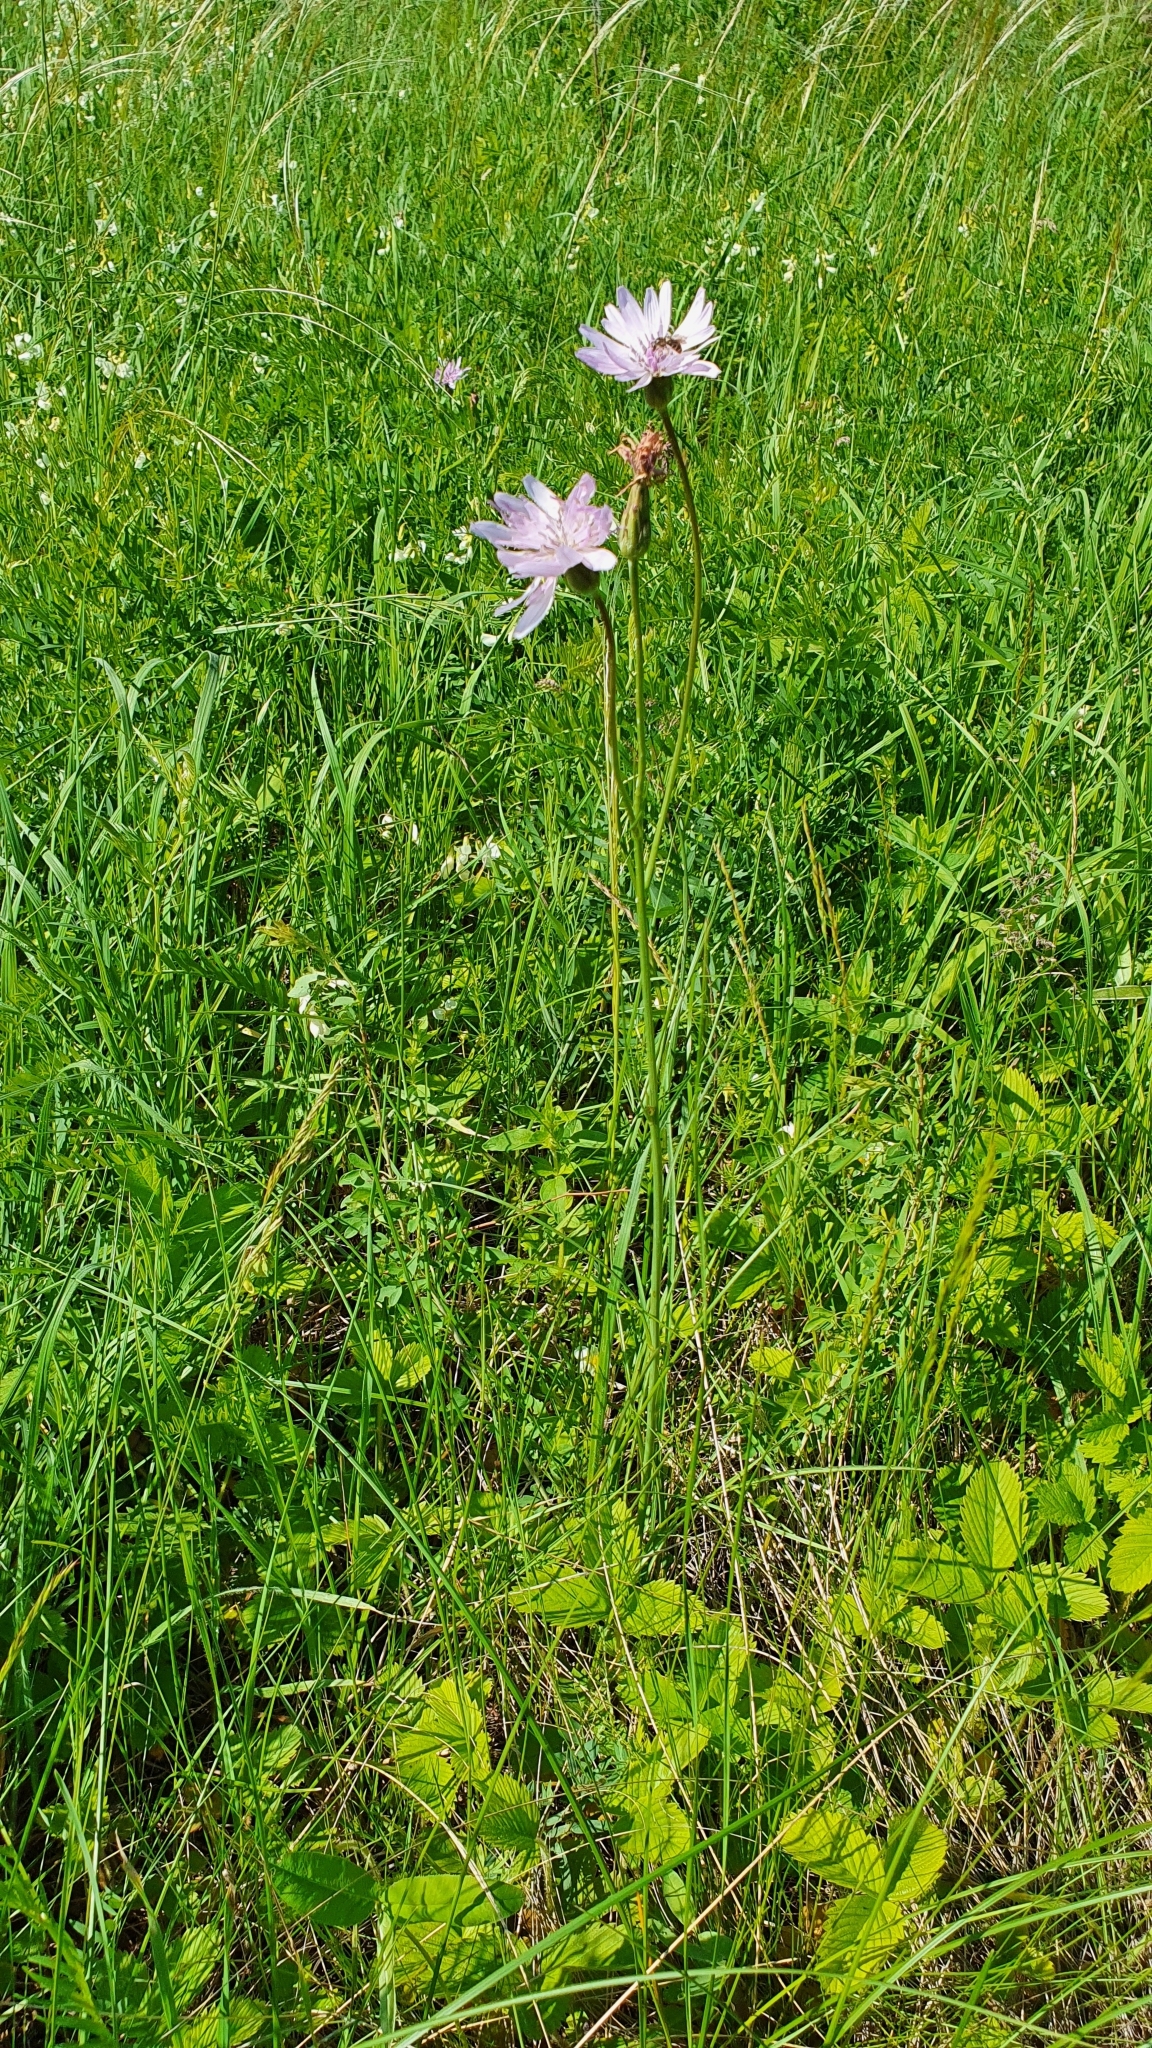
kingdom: Plantae
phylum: Tracheophyta
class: Magnoliopsida
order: Asterales
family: Asteraceae
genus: Scorzonera
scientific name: Scorzonera purpurea
